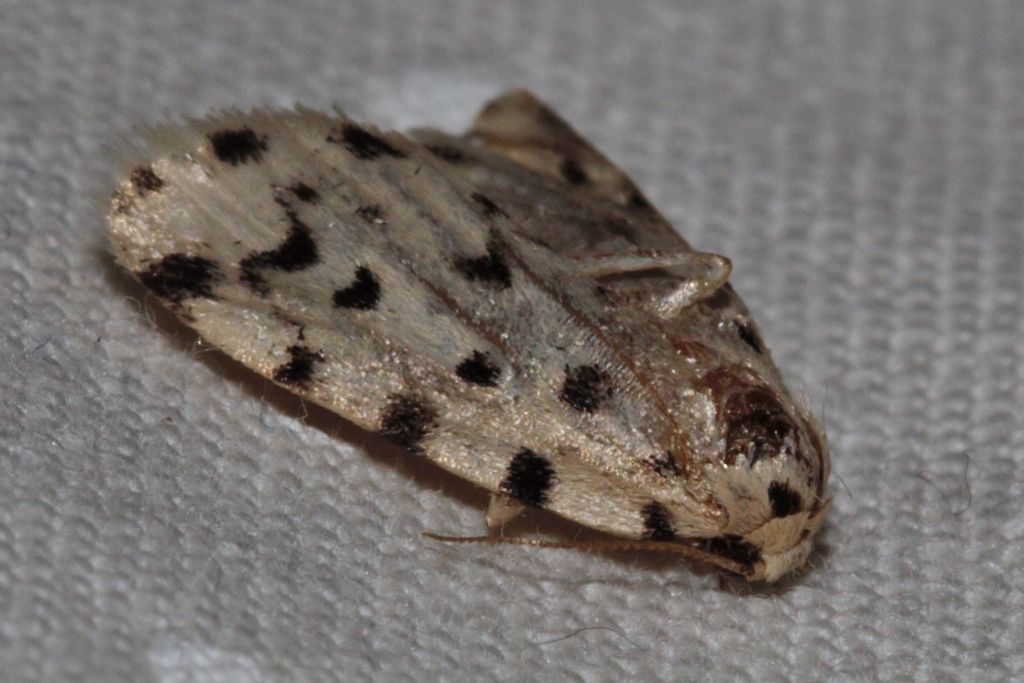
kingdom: Animalia
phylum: Arthropoda
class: Insecta
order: Lepidoptera
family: Erebidae
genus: Siccia
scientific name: Siccia caffra
